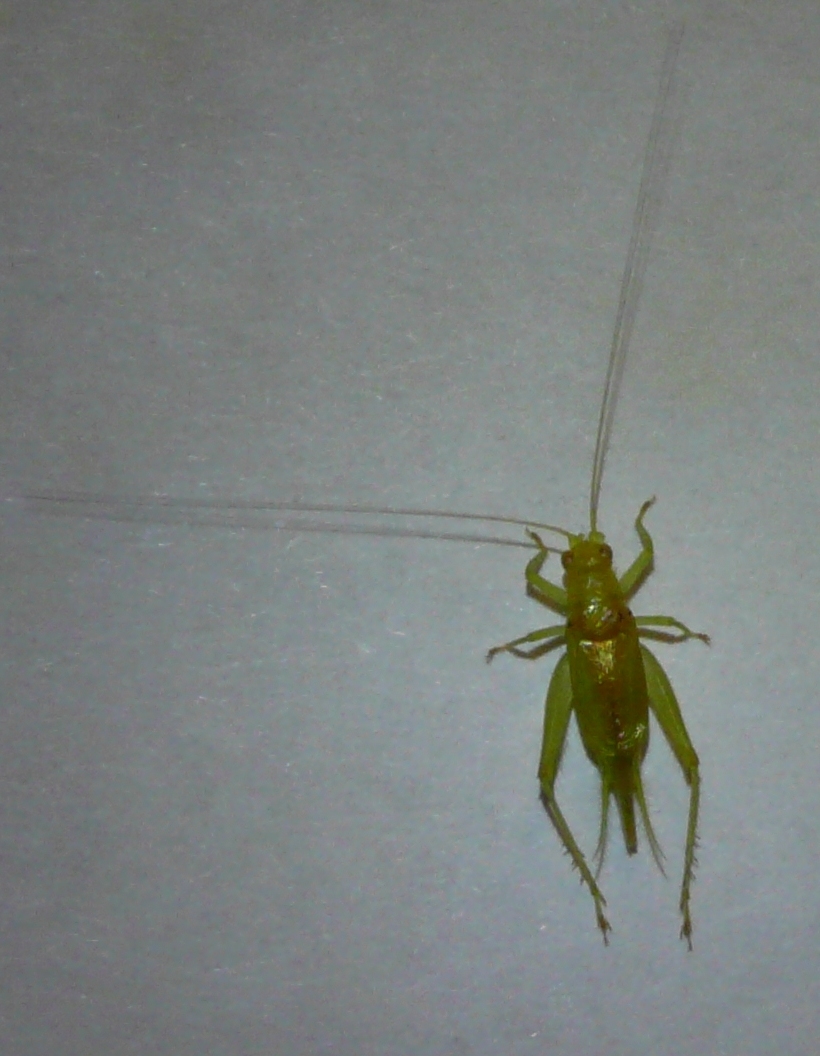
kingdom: Animalia
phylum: Arthropoda
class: Insecta
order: Orthoptera
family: Trigonidiidae
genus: Cyrtoxipha
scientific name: Cyrtoxipha columbiana
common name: Columbian trig
